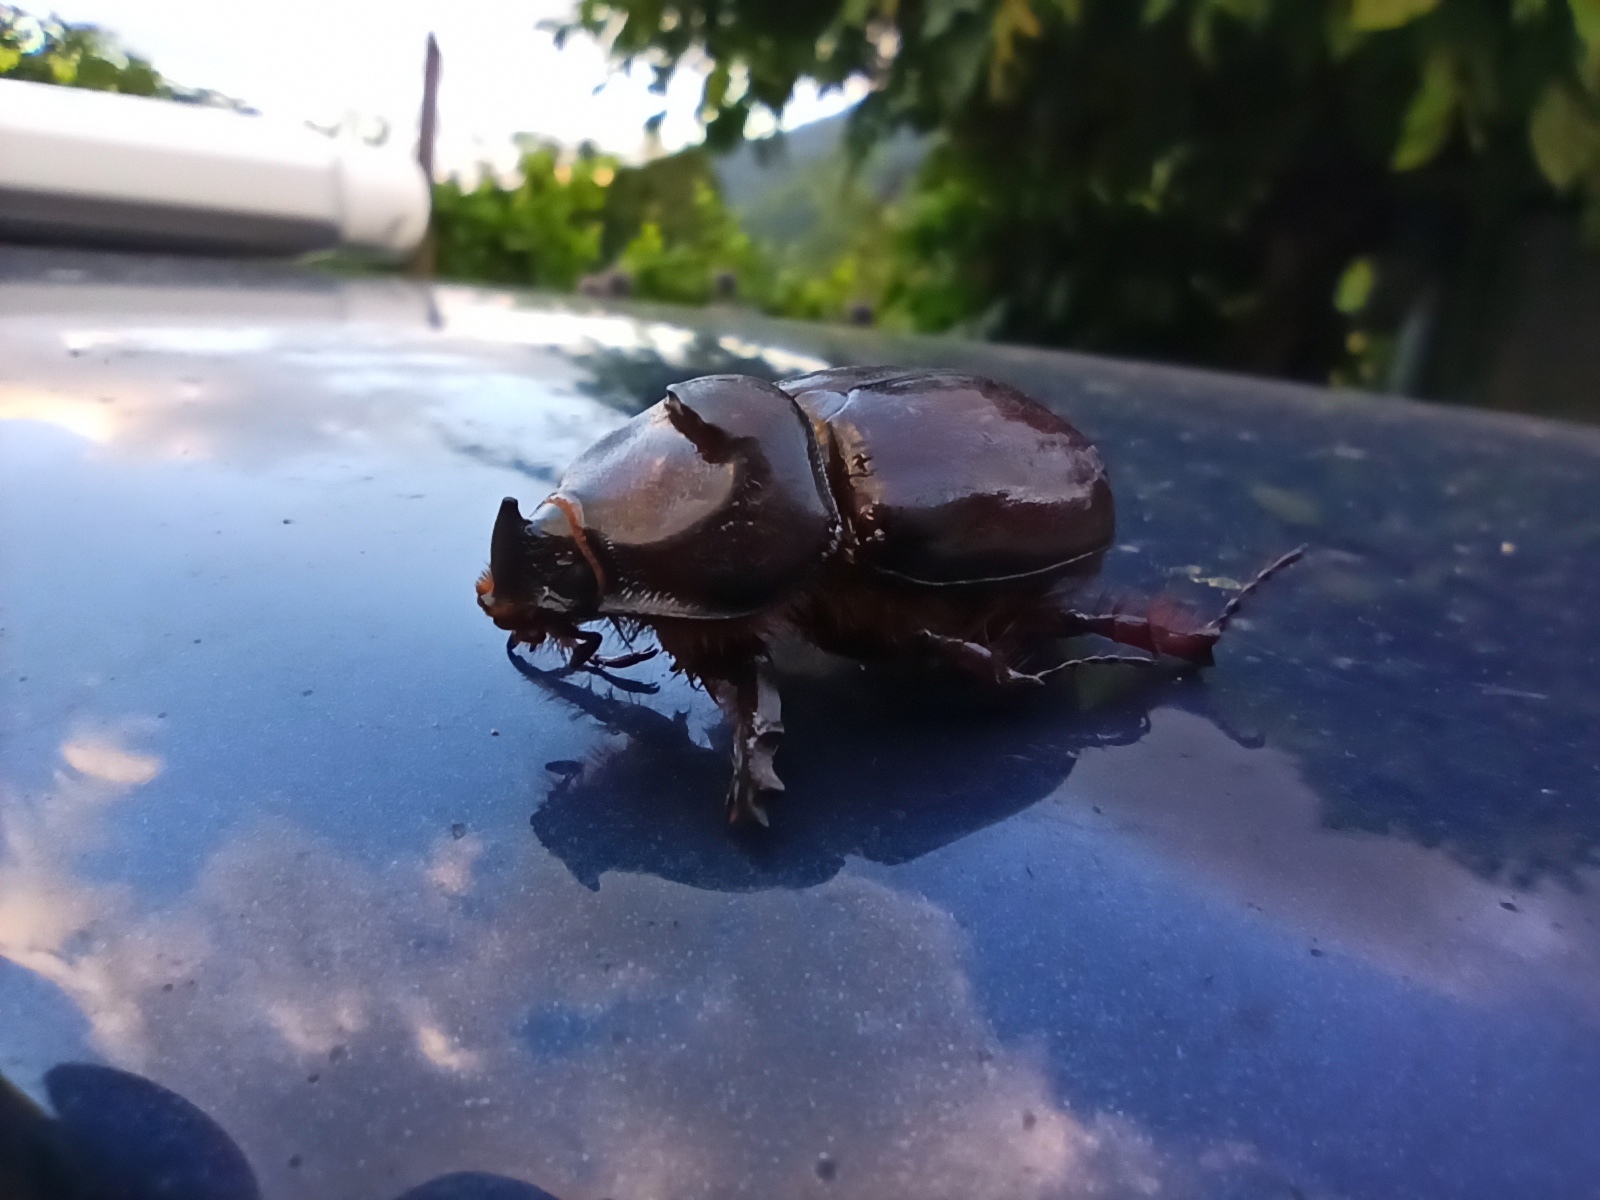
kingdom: Animalia
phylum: Arthropoda
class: Insecta
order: Coleoptera
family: Scarabaeidae
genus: Oryctes
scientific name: Oryctes nasicornis
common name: European rhinoceros beetle
